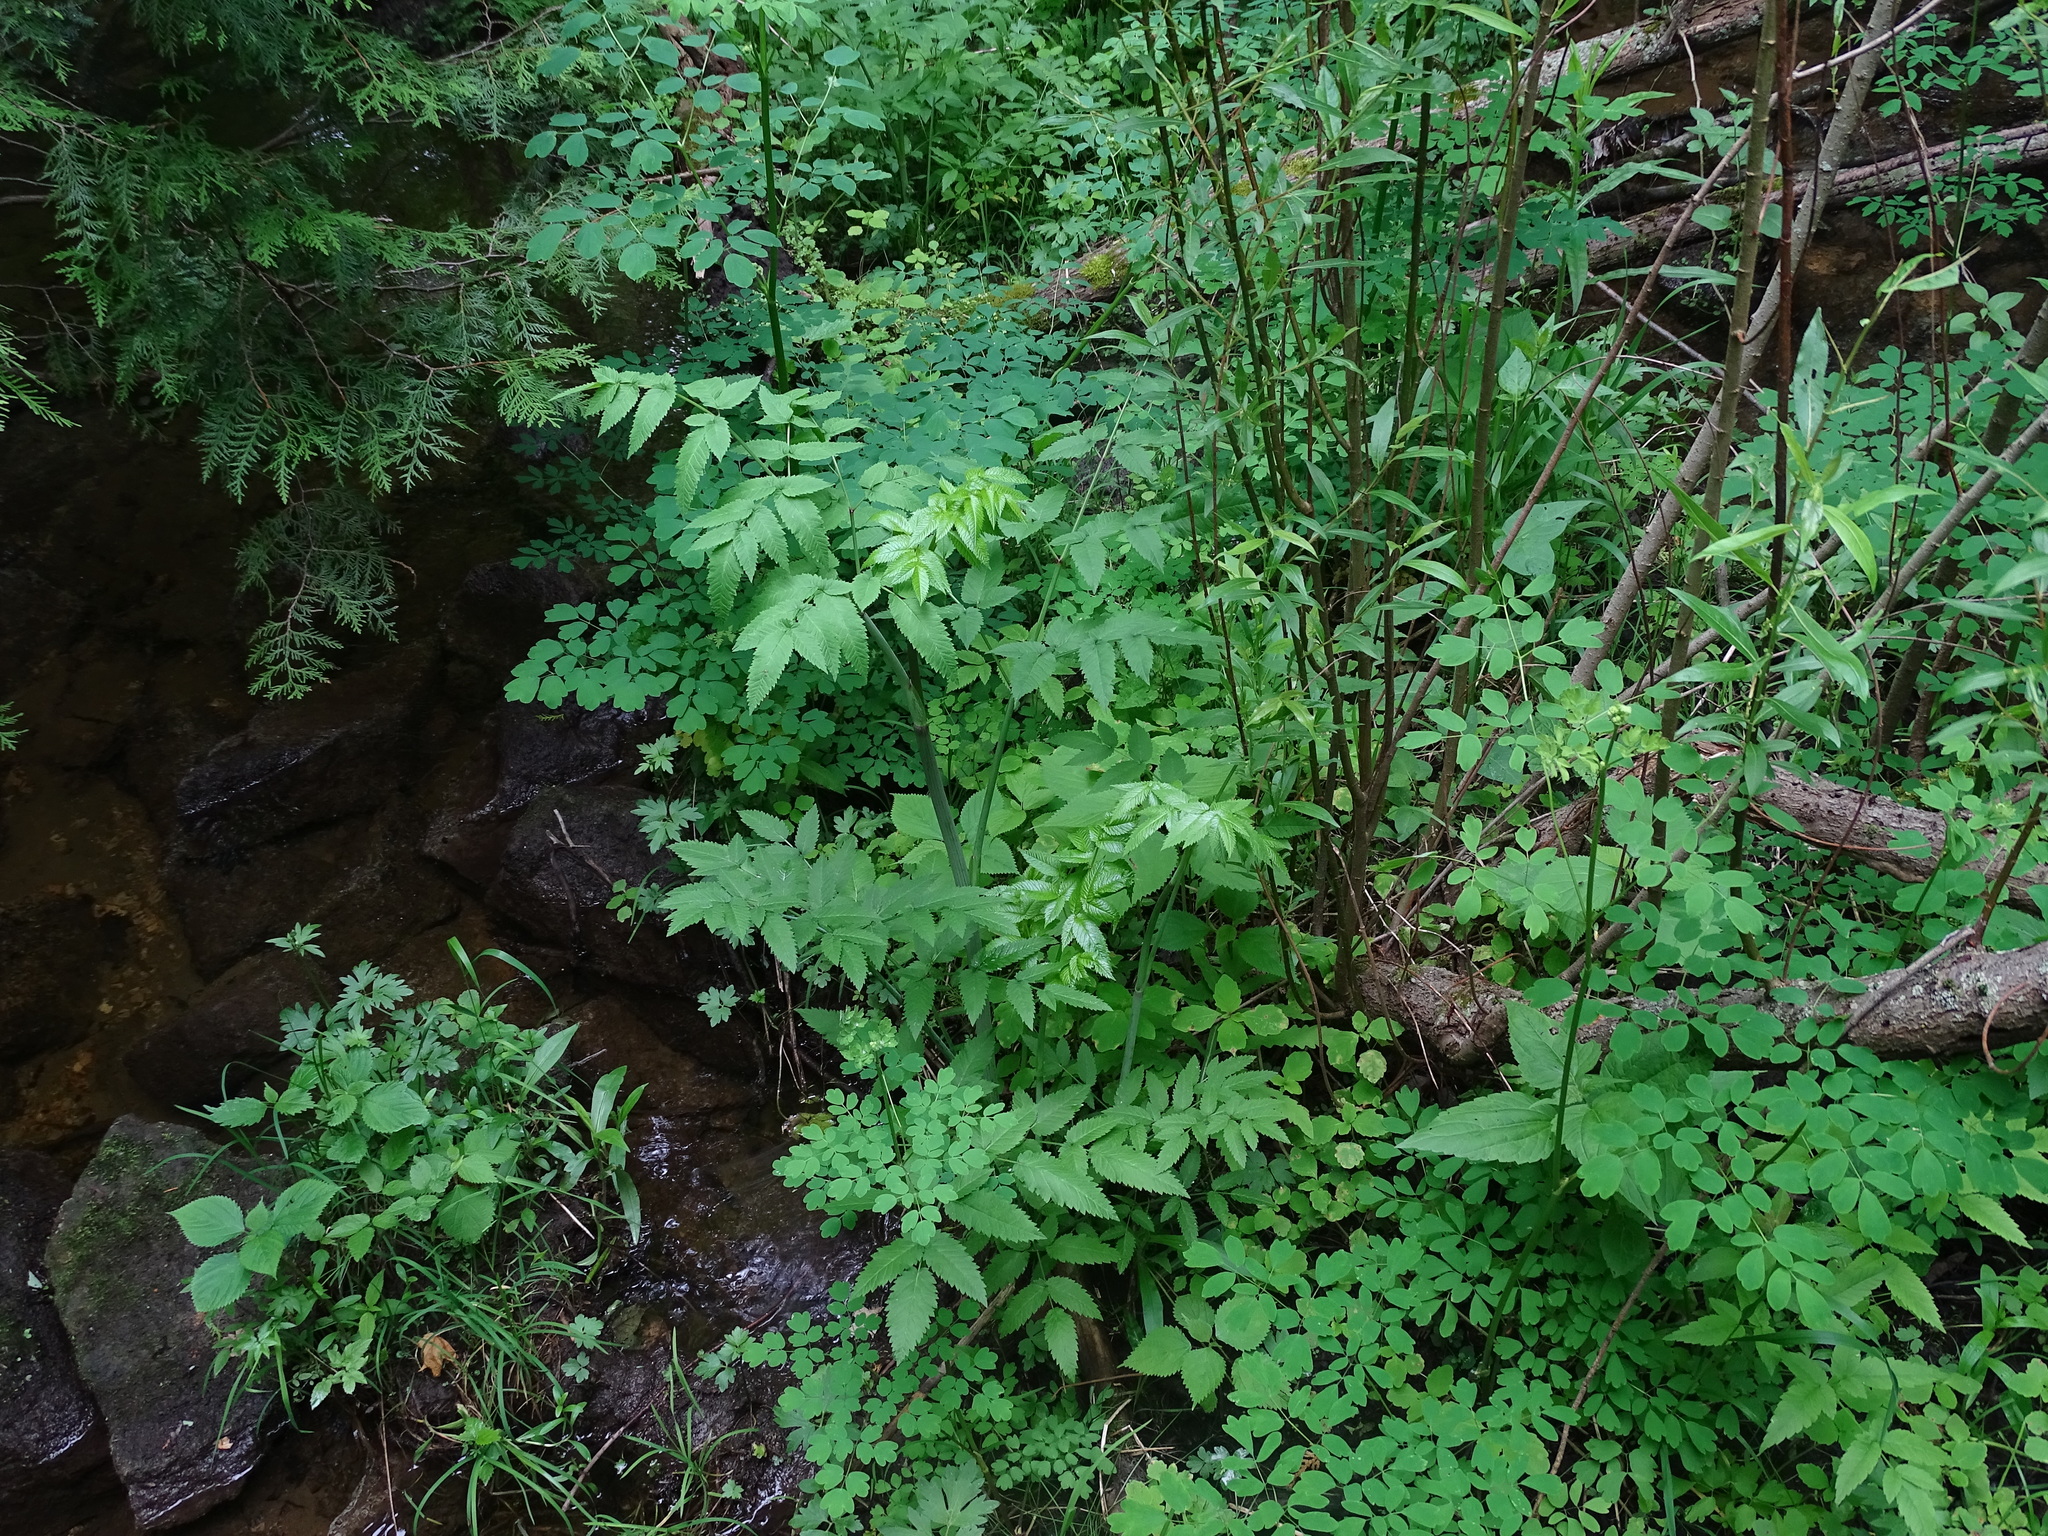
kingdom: Plantae
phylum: Tracheophyta
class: Magnoliopsida
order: Apiales
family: Apiaceae
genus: Cicuta
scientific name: Cicuta maculata
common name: Spotted cowbane
